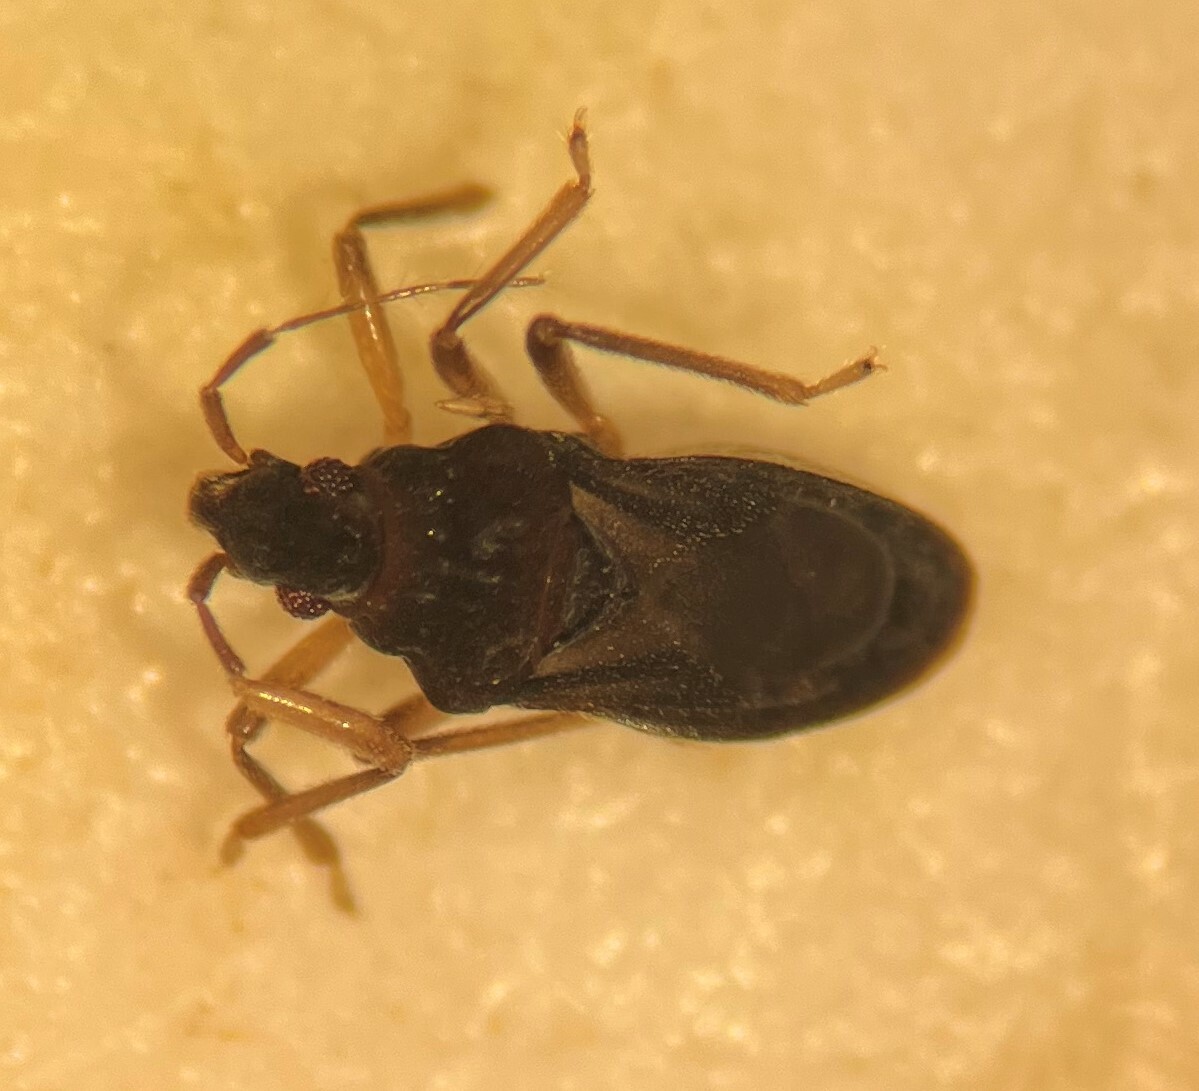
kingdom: Animalia
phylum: Arthropoda
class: Insecta
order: Hemiptera
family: Hebridae
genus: Hebrus
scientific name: Hebrus concinnus
